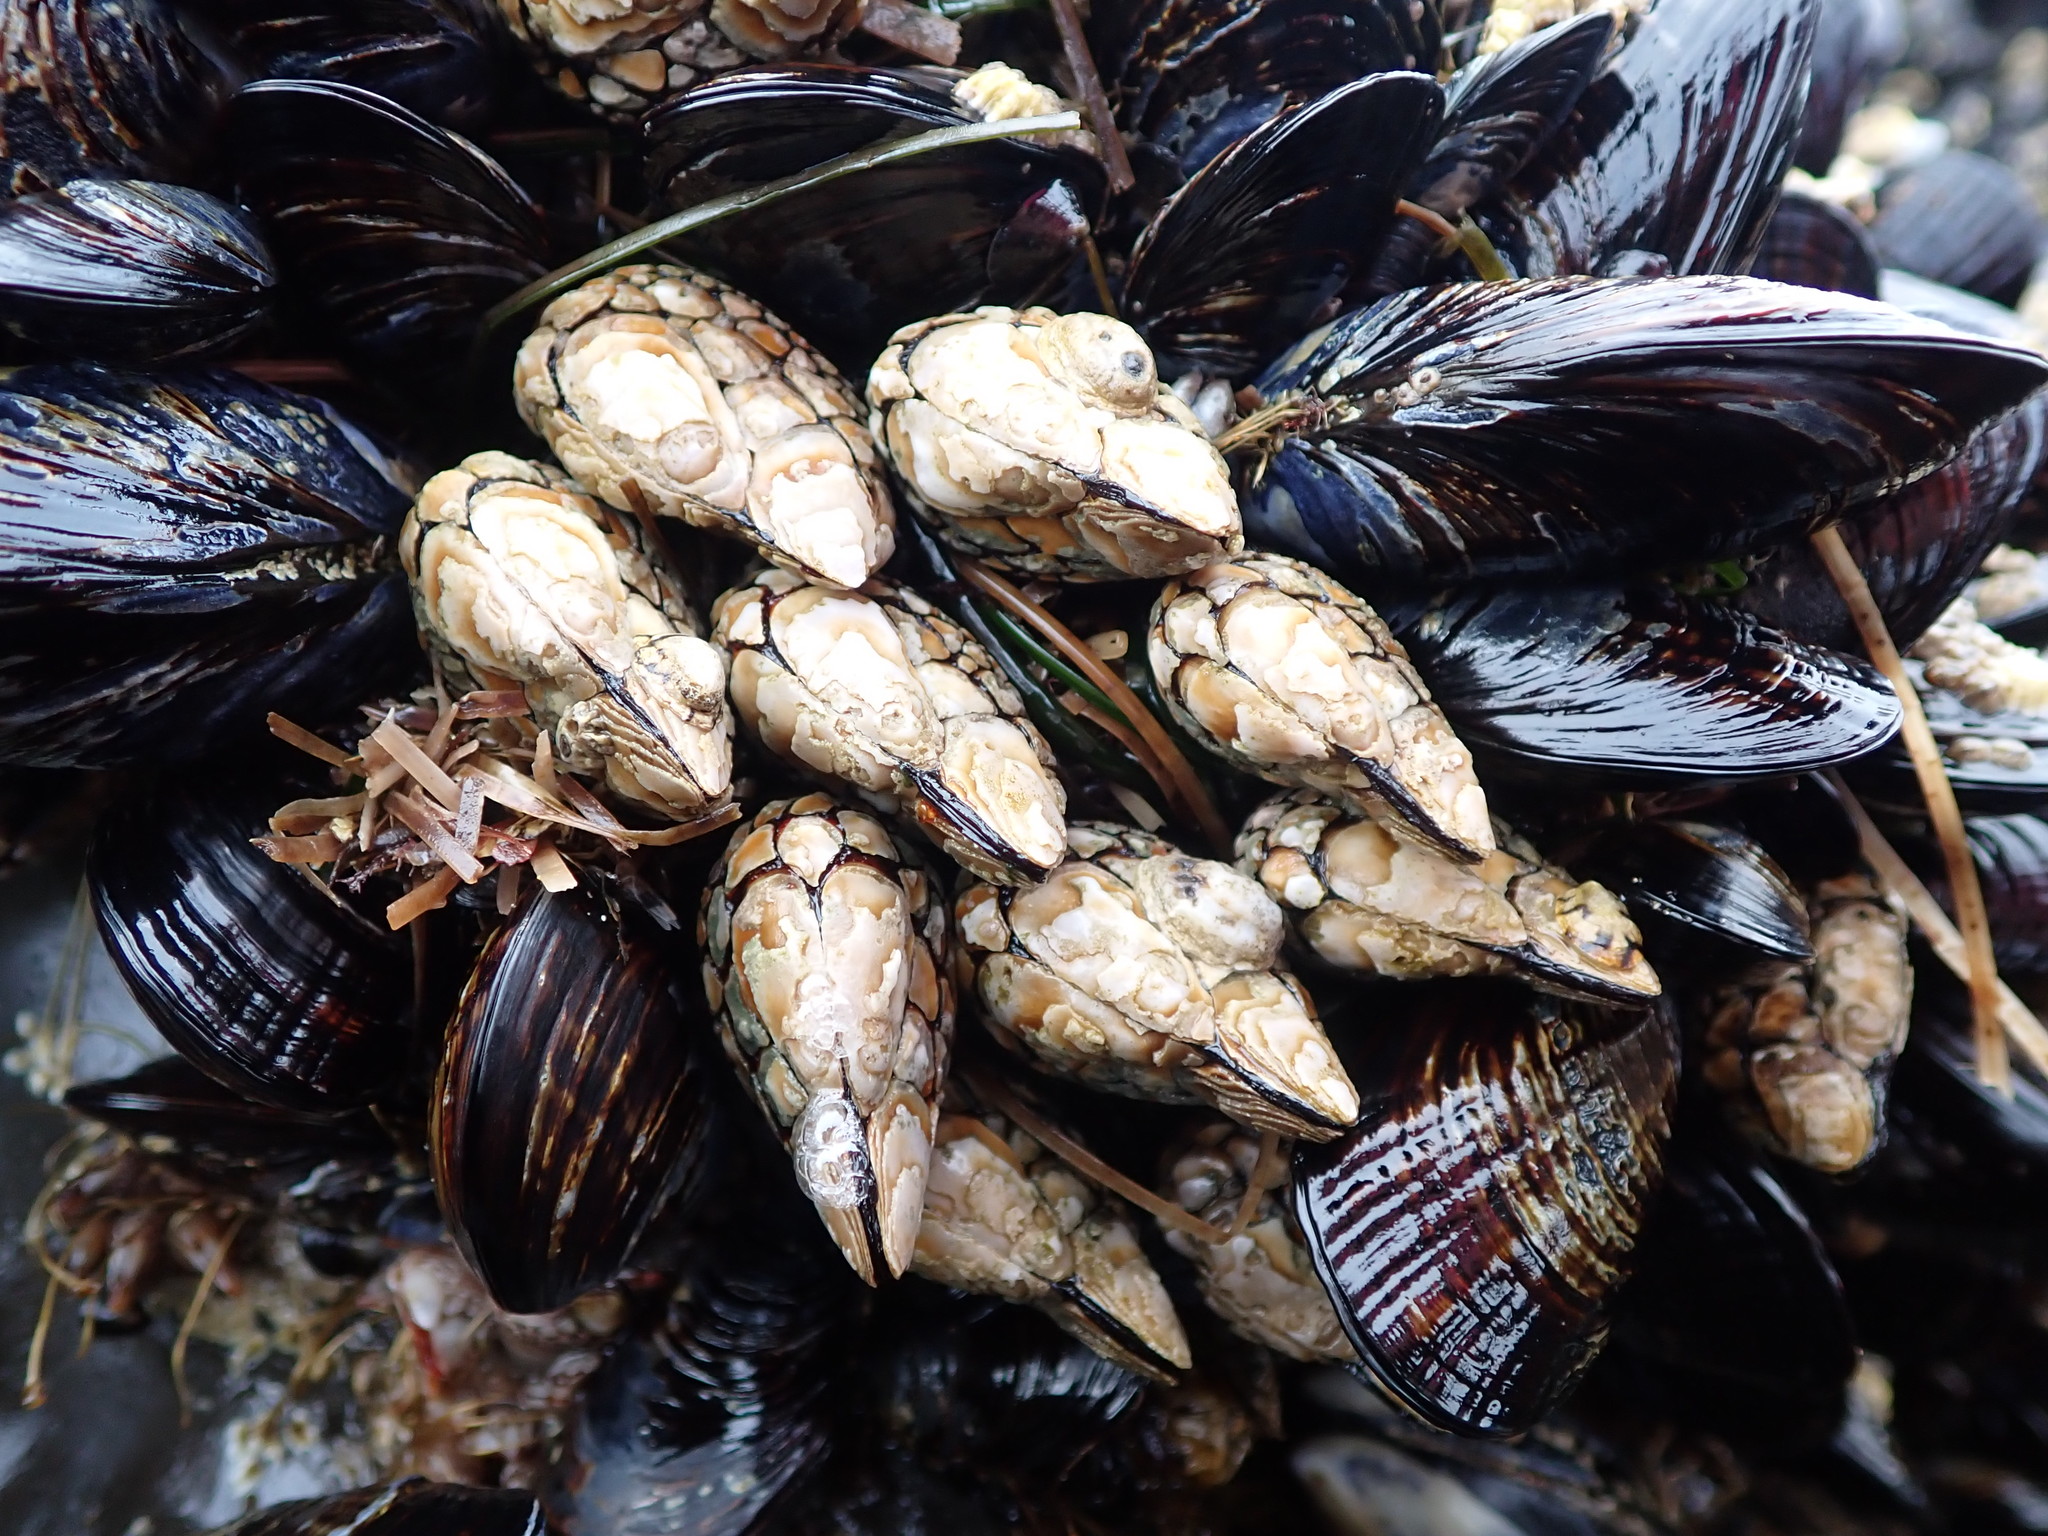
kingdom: Animalia
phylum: Arthropoda
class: Maxillopoda
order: Pedunculata
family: Pollicipedidae
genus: Pollicipes
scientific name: Pollicipes polymerus
